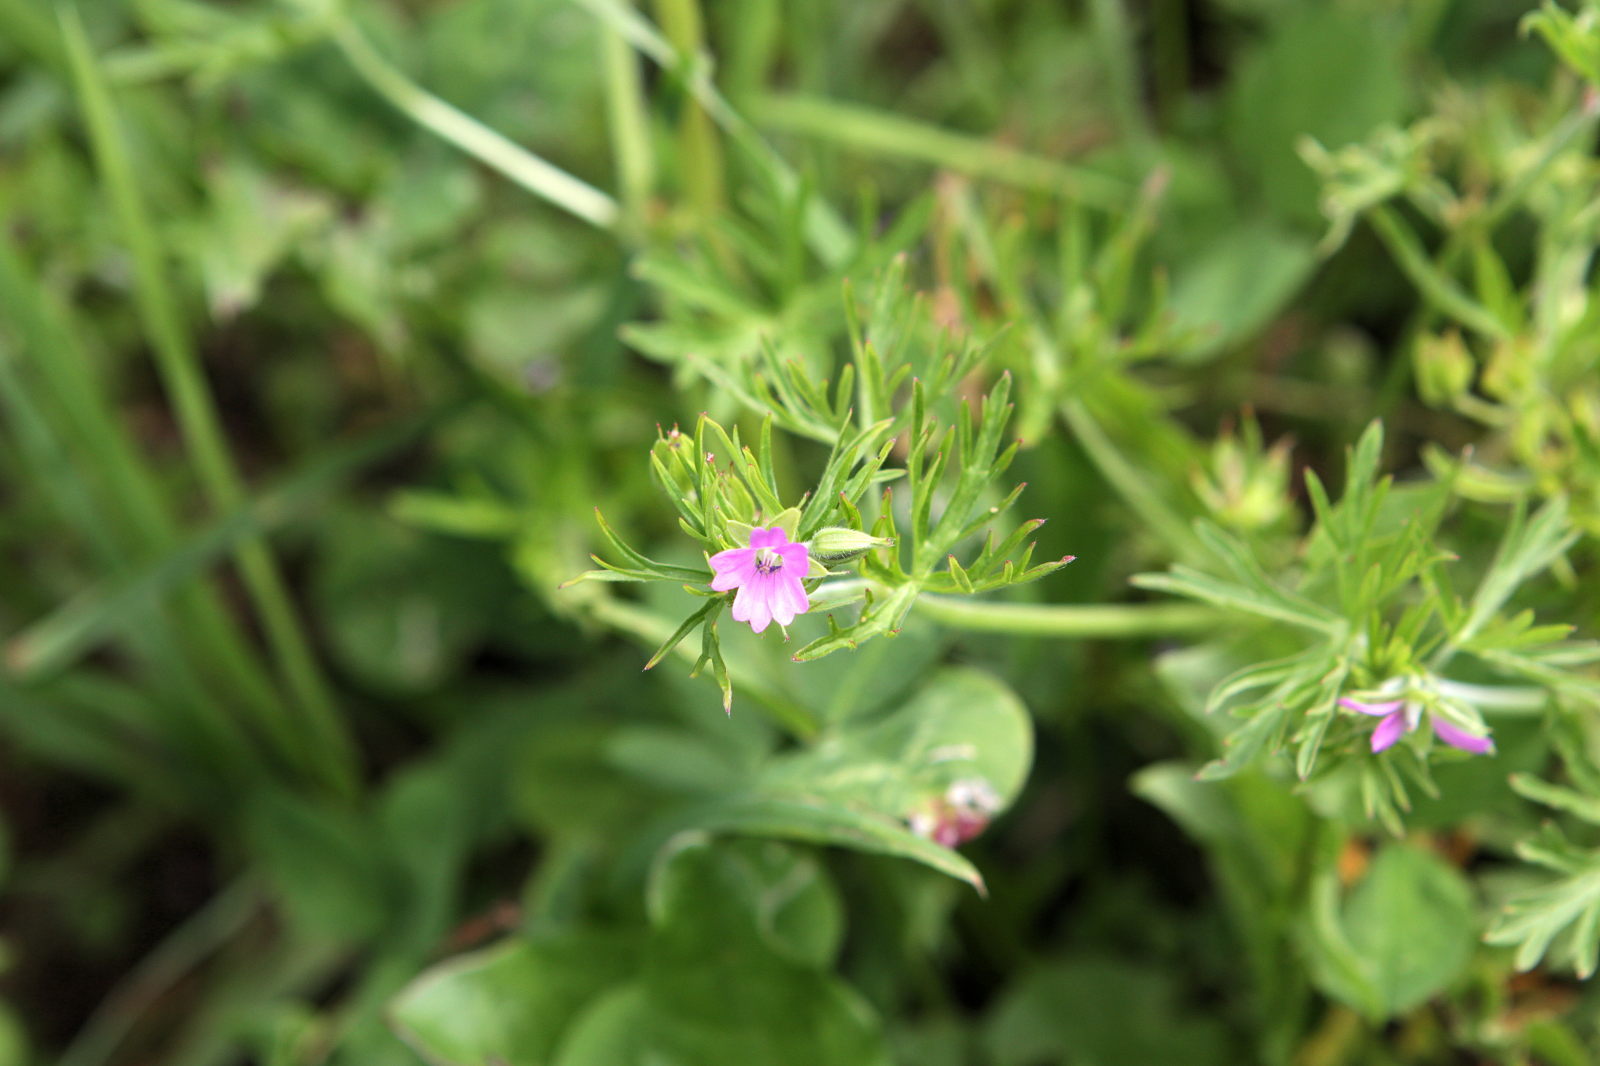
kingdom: Plantae
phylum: Tracheophyta
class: Magnoliopsida
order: Geraniales
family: Geraniaceae
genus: Geranium
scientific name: Geranium dissectum
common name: Cut-leaved crane's-bill
